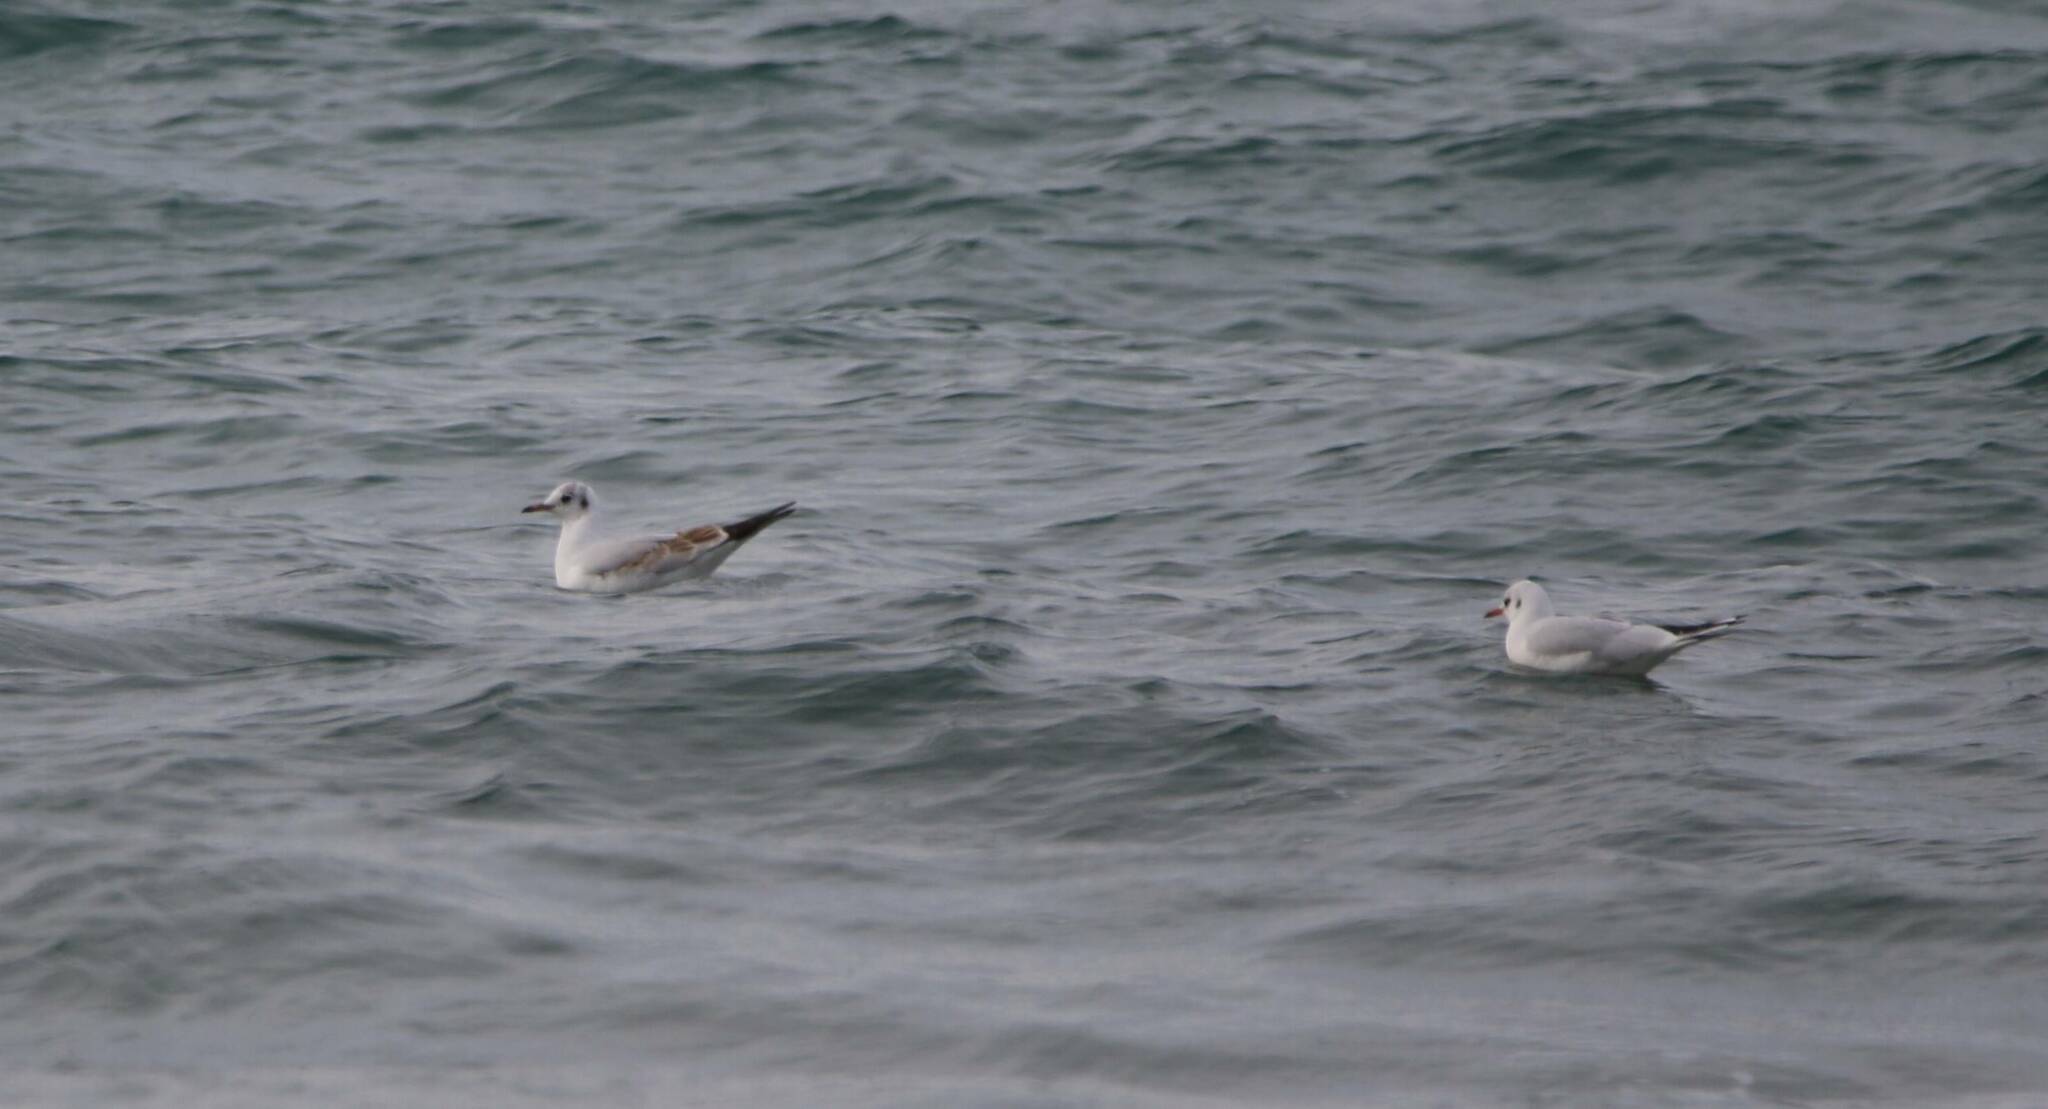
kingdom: Animalia
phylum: Chordata
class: Aves
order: Charadriiformes
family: Laridae
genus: Chroicocephalus
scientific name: Chroicocephalus ridibundus
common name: Black-headed gull
